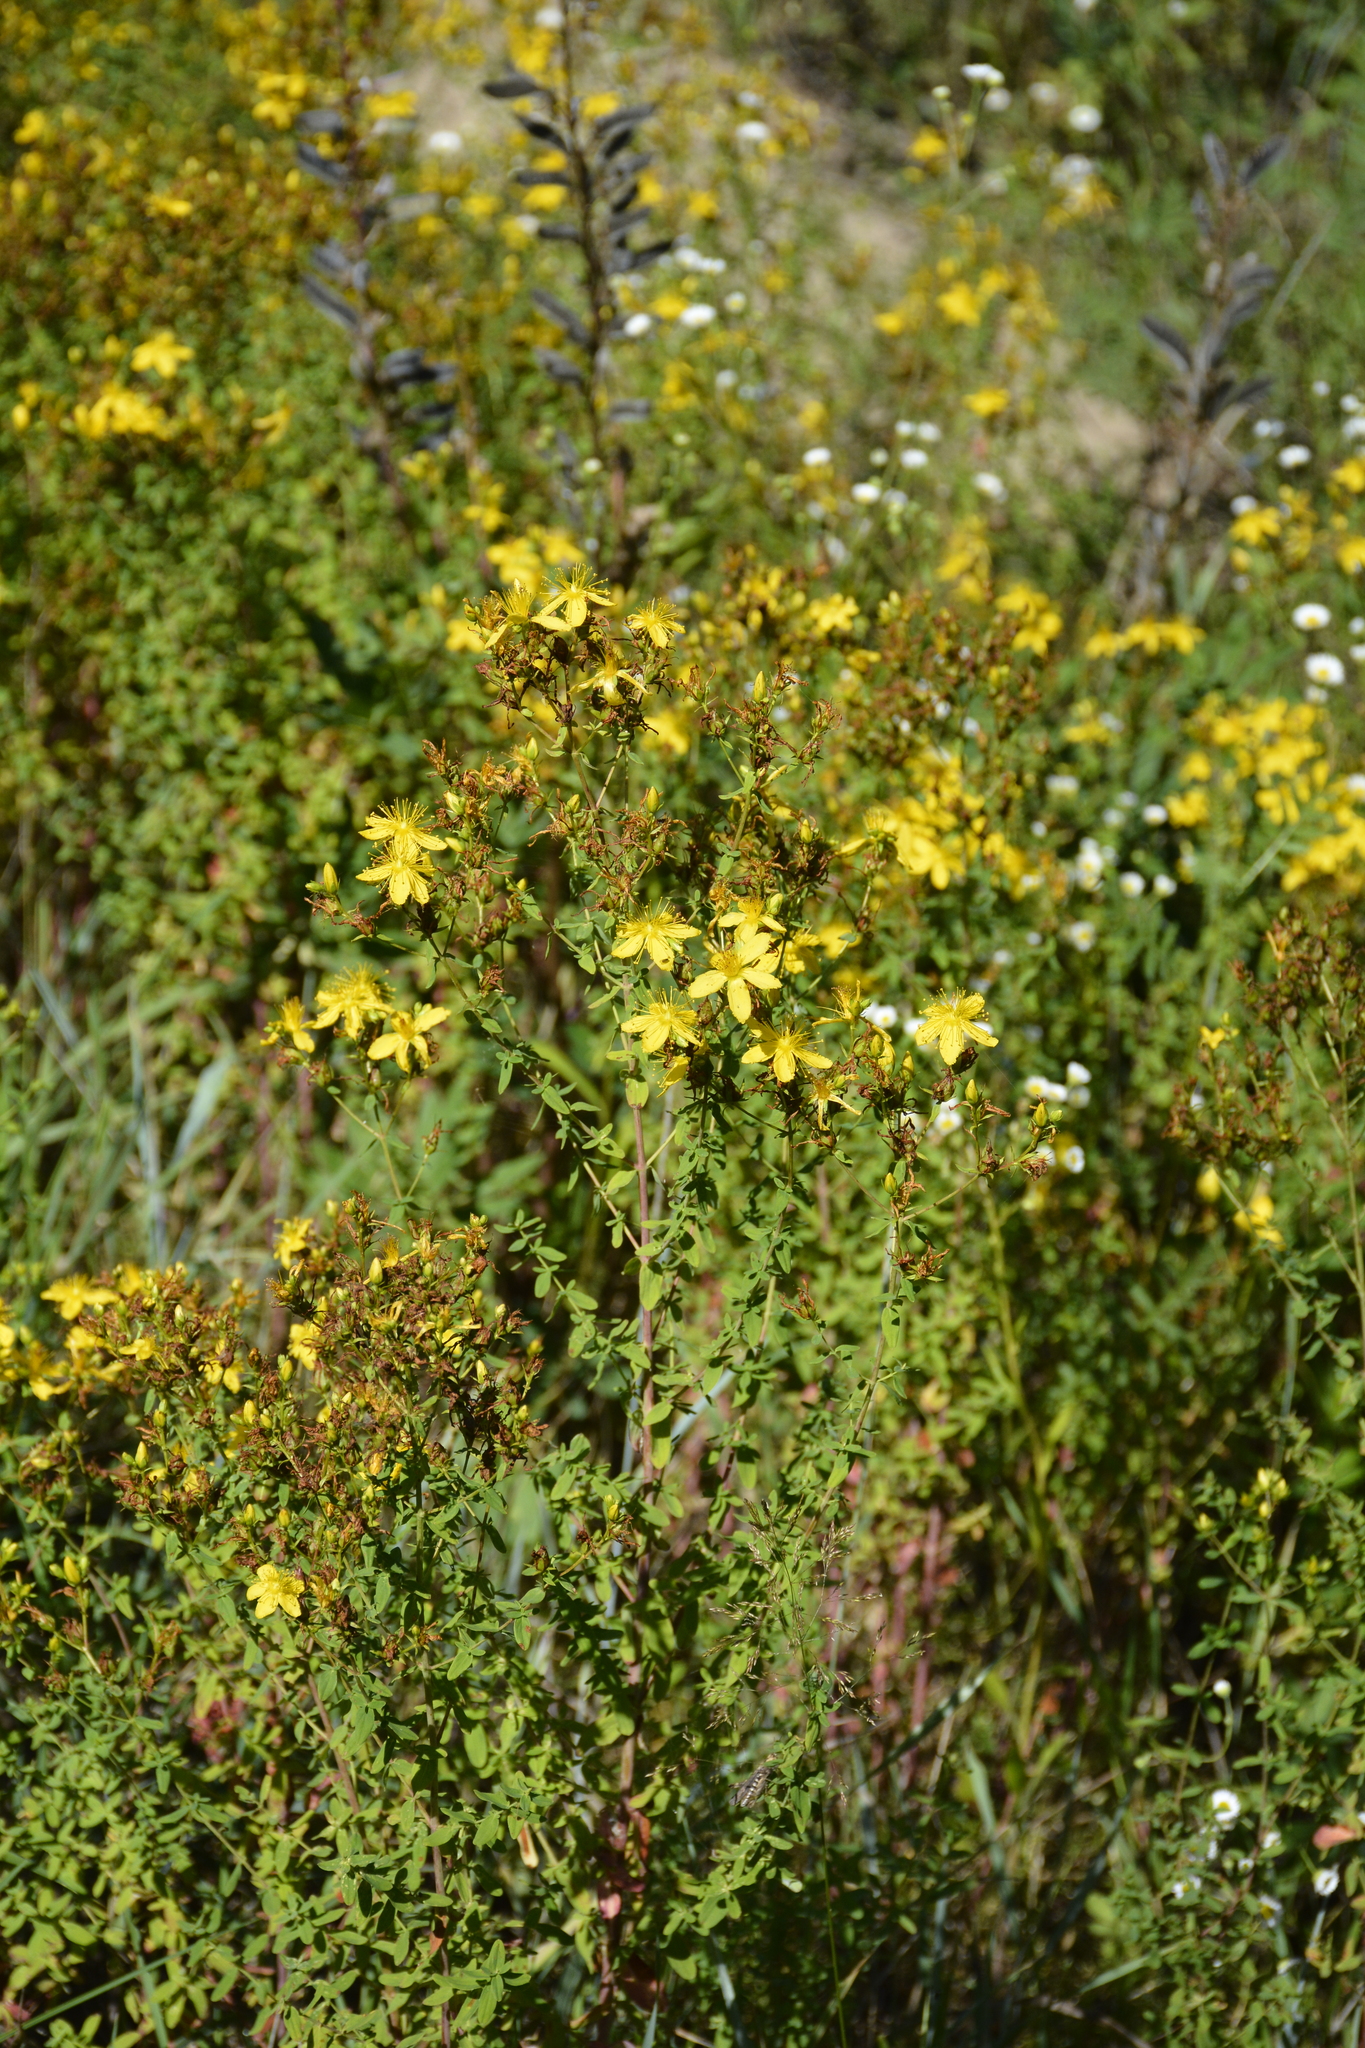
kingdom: Plantae
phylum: Tracheophyta
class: Magnoliopsida
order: Malpighiales
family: Hypericaceae
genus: Hypericum
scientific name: Hypericum perforatum
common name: Common st. johnswort
